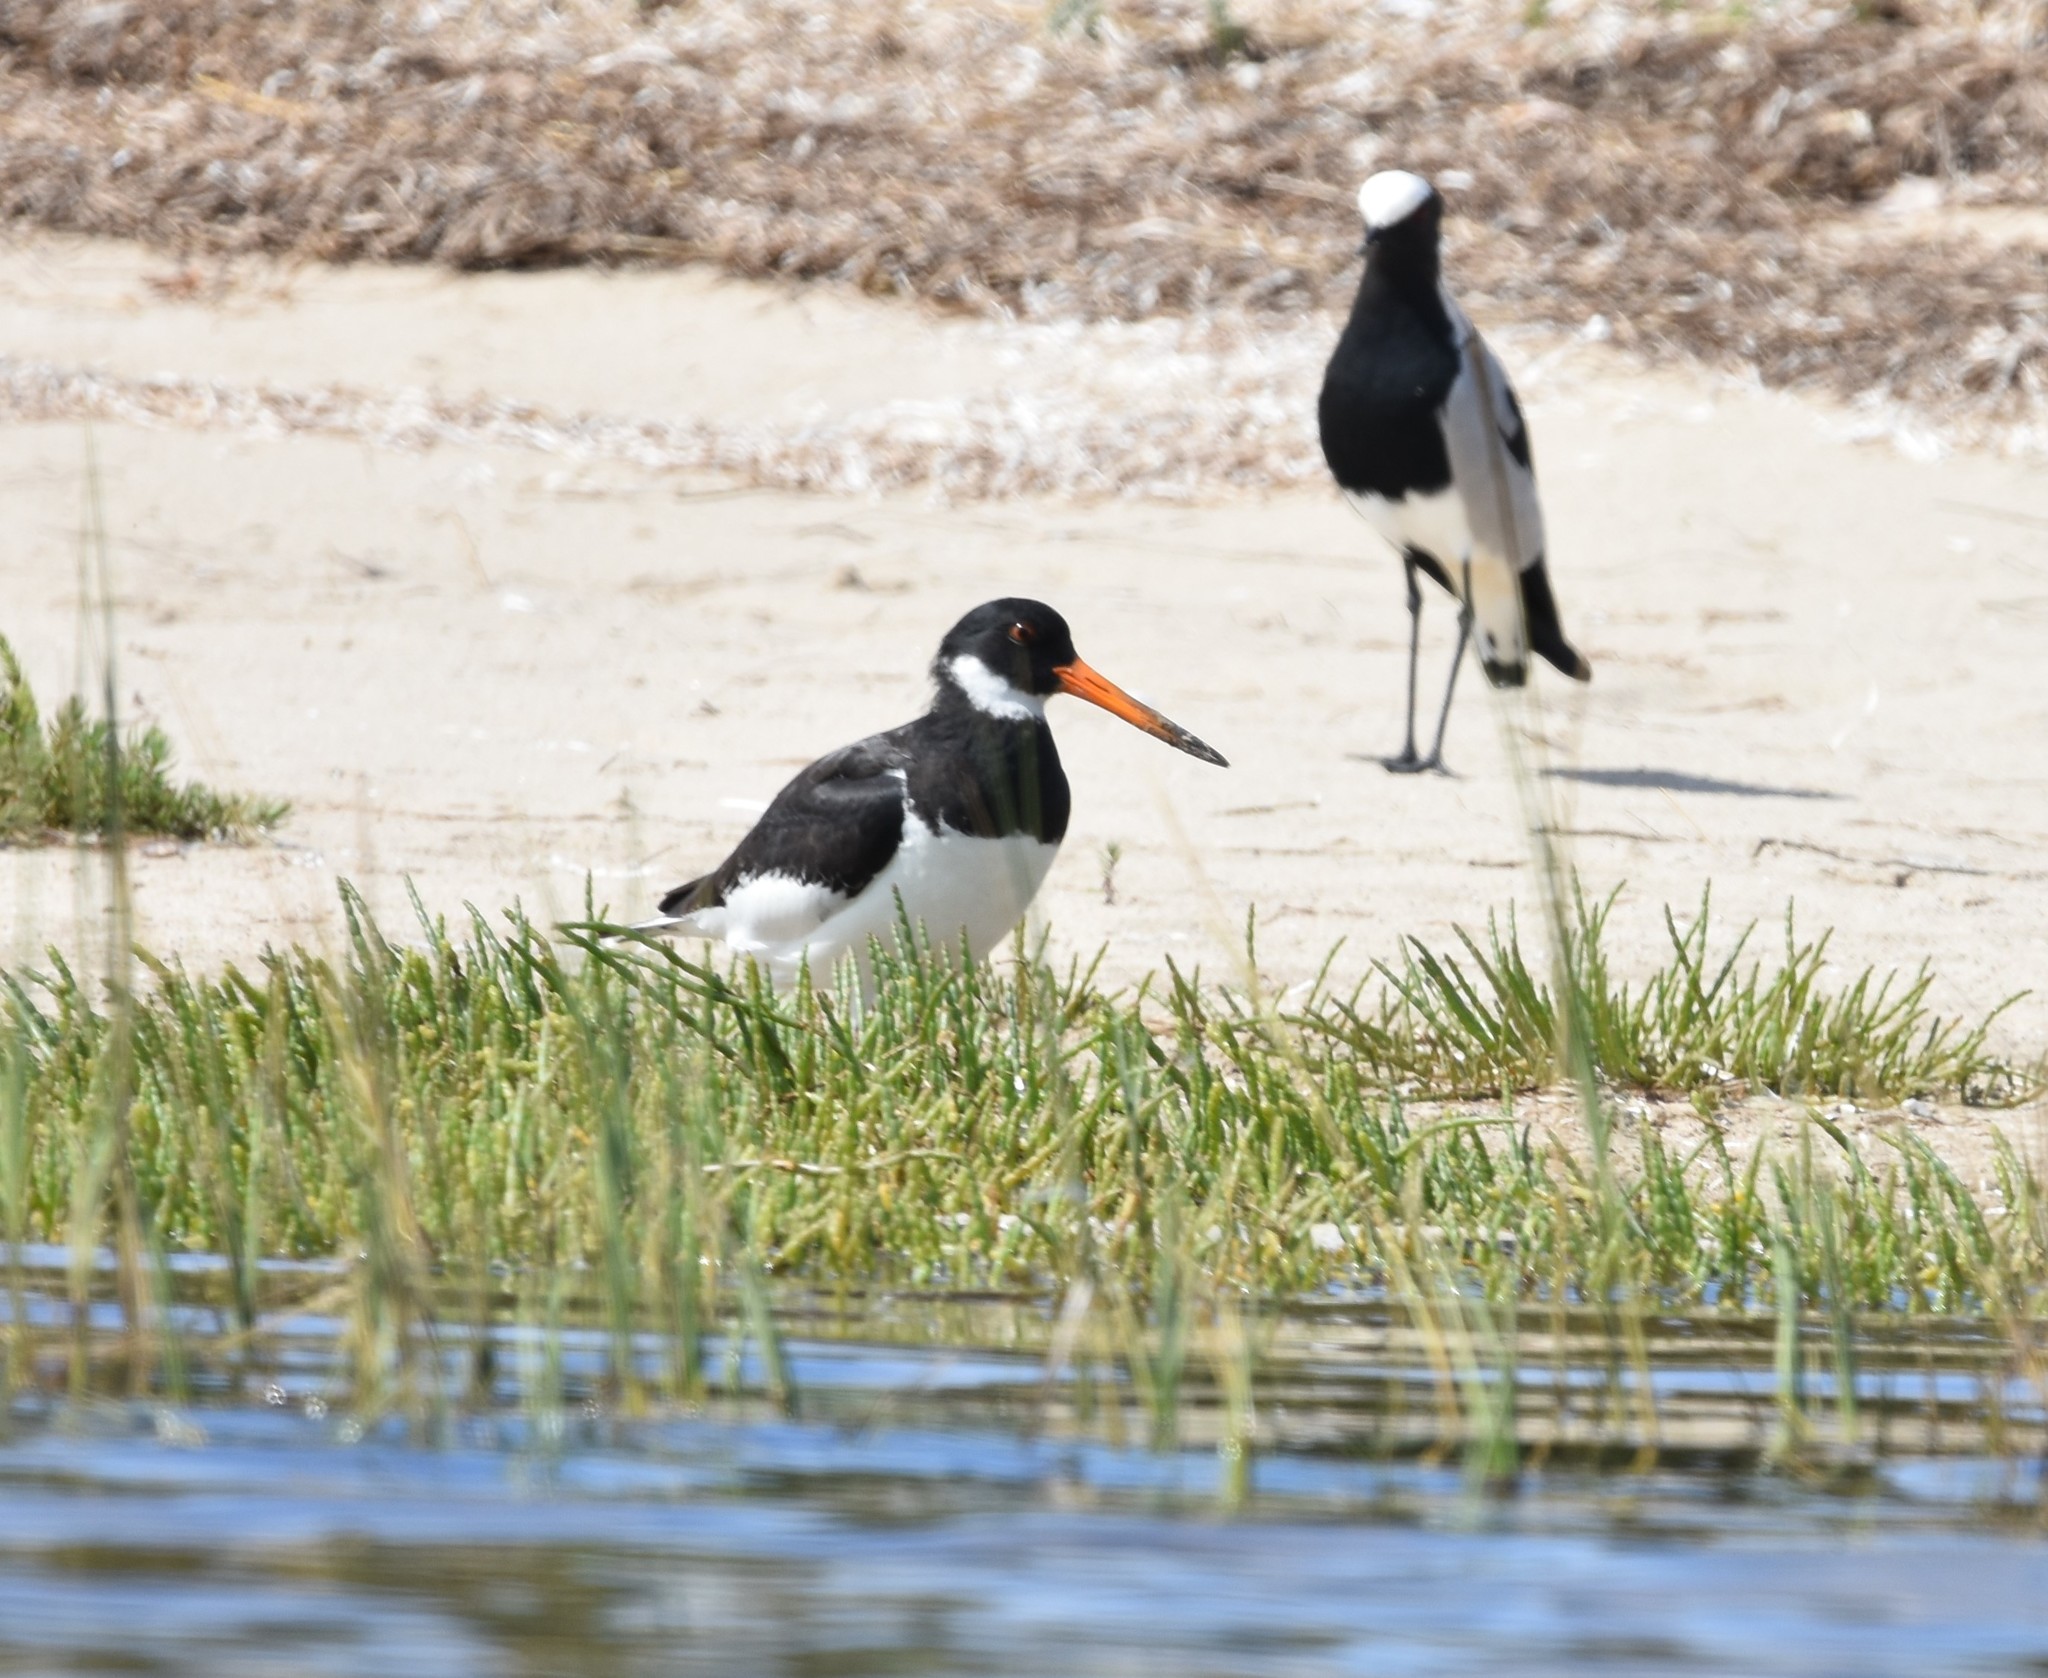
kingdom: Animalia
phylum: Chordata
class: Aves
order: Charadriiformes
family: Haematopodidae
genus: Haematopus
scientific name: Haematopus ostralegus
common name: Eurasian oystercatcher
